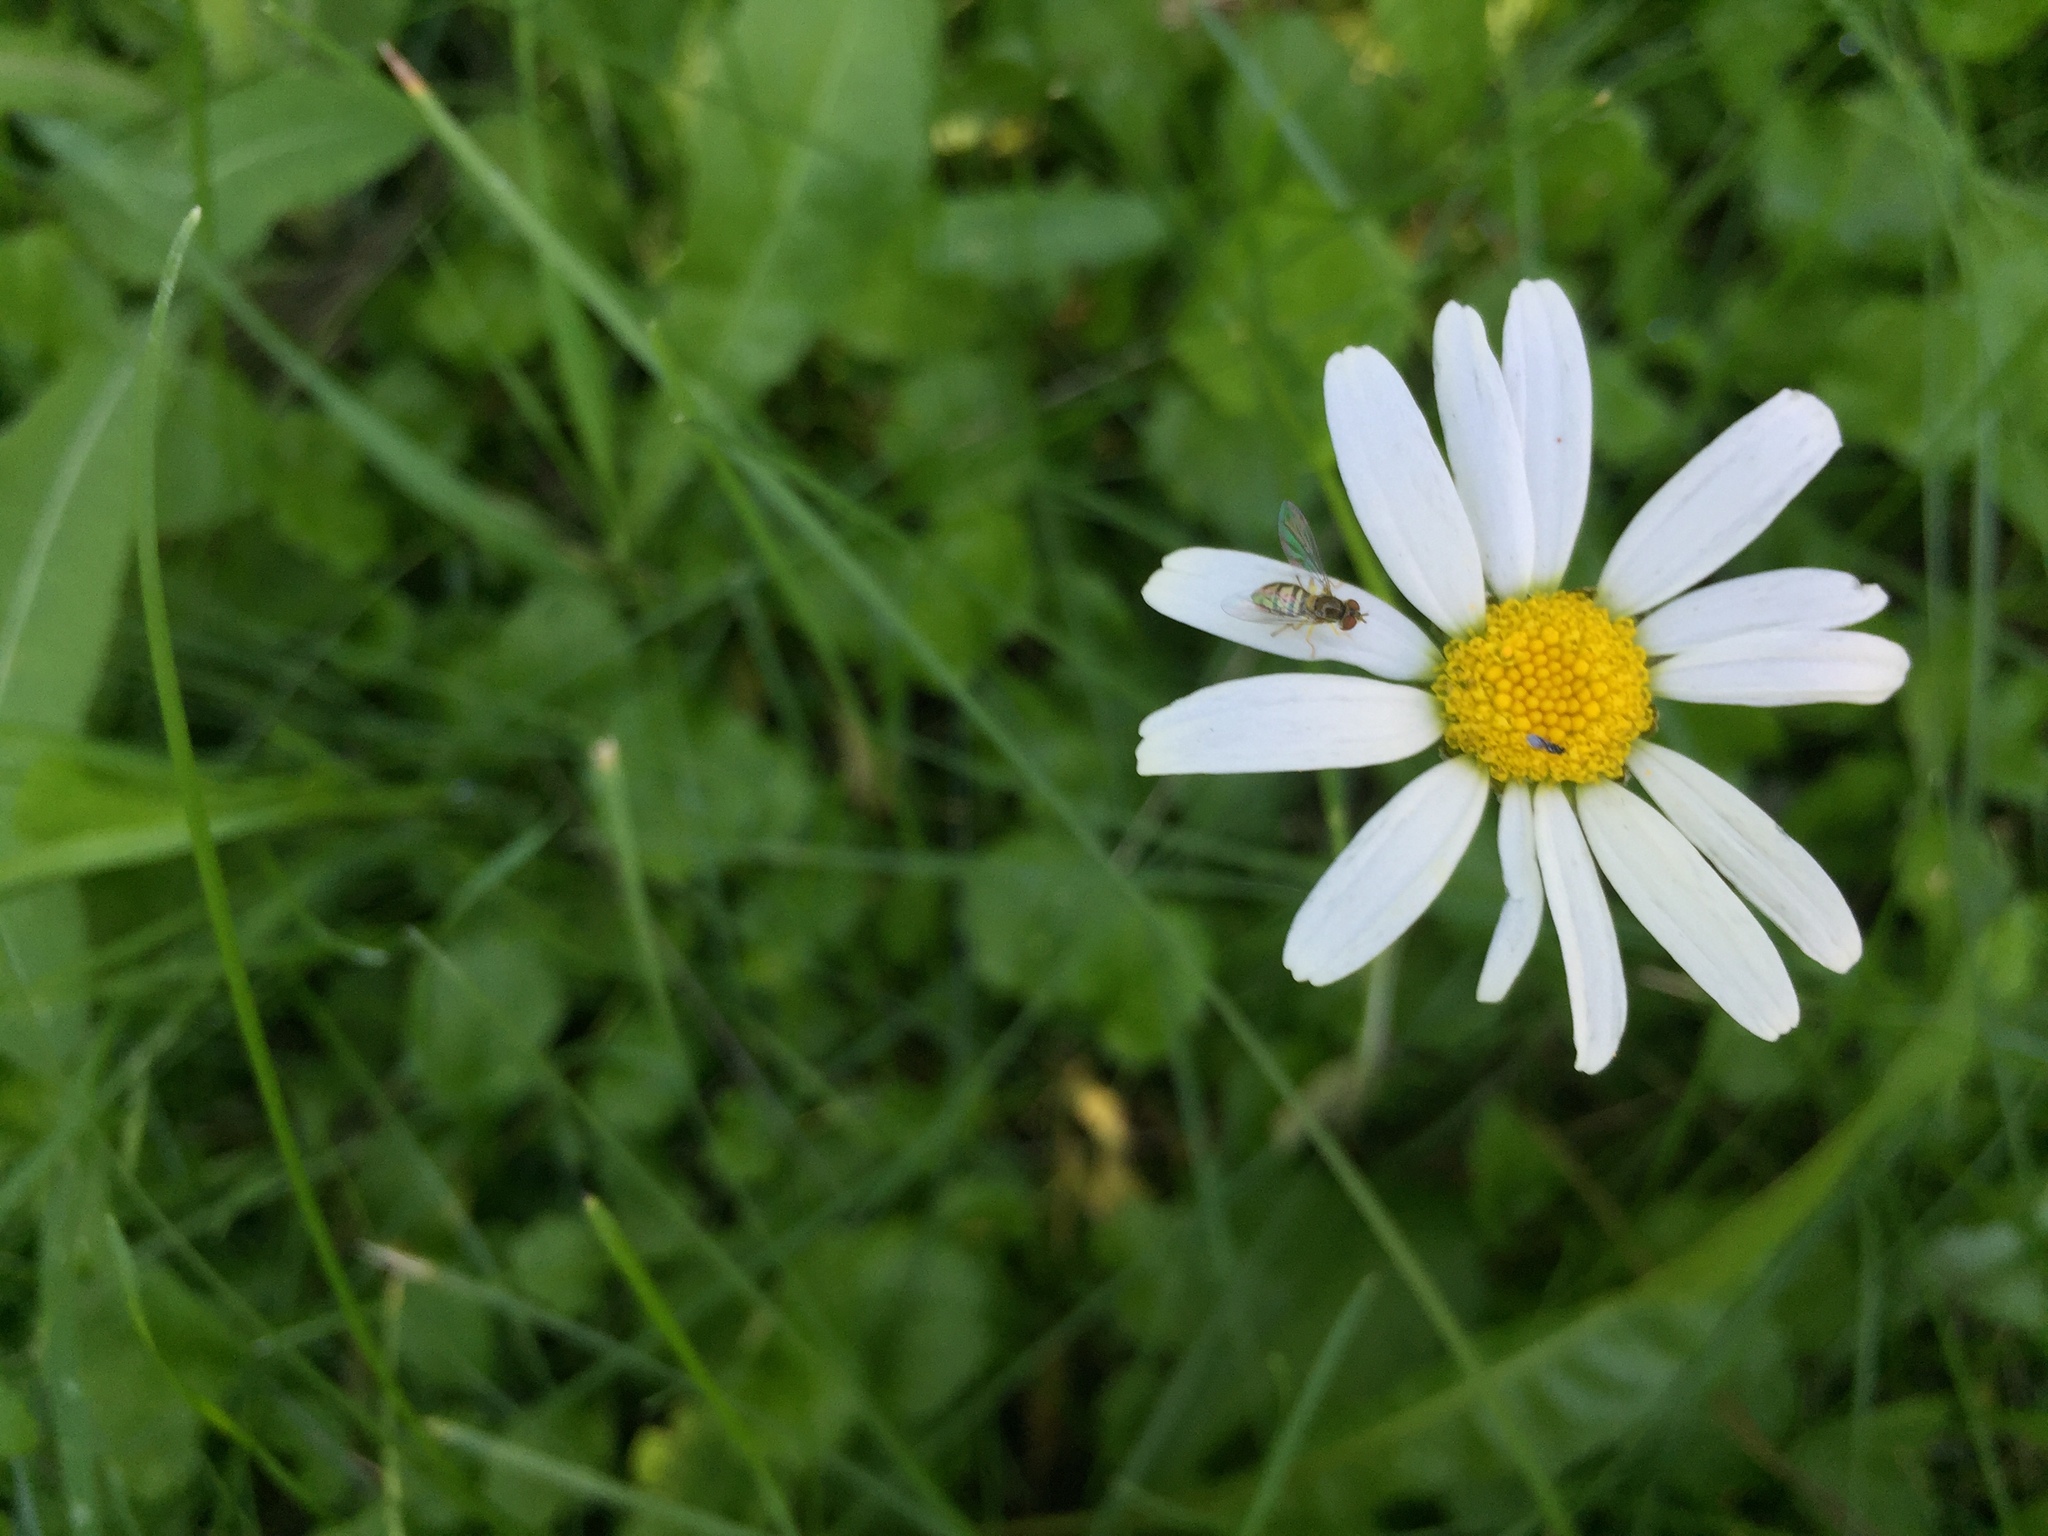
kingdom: Plantae
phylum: Tracheophyta
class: Magnoliopsida
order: Asterales
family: Asteraceae
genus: Leucanthemum
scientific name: Leucanthemum vulgare
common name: Oxeye daisy
